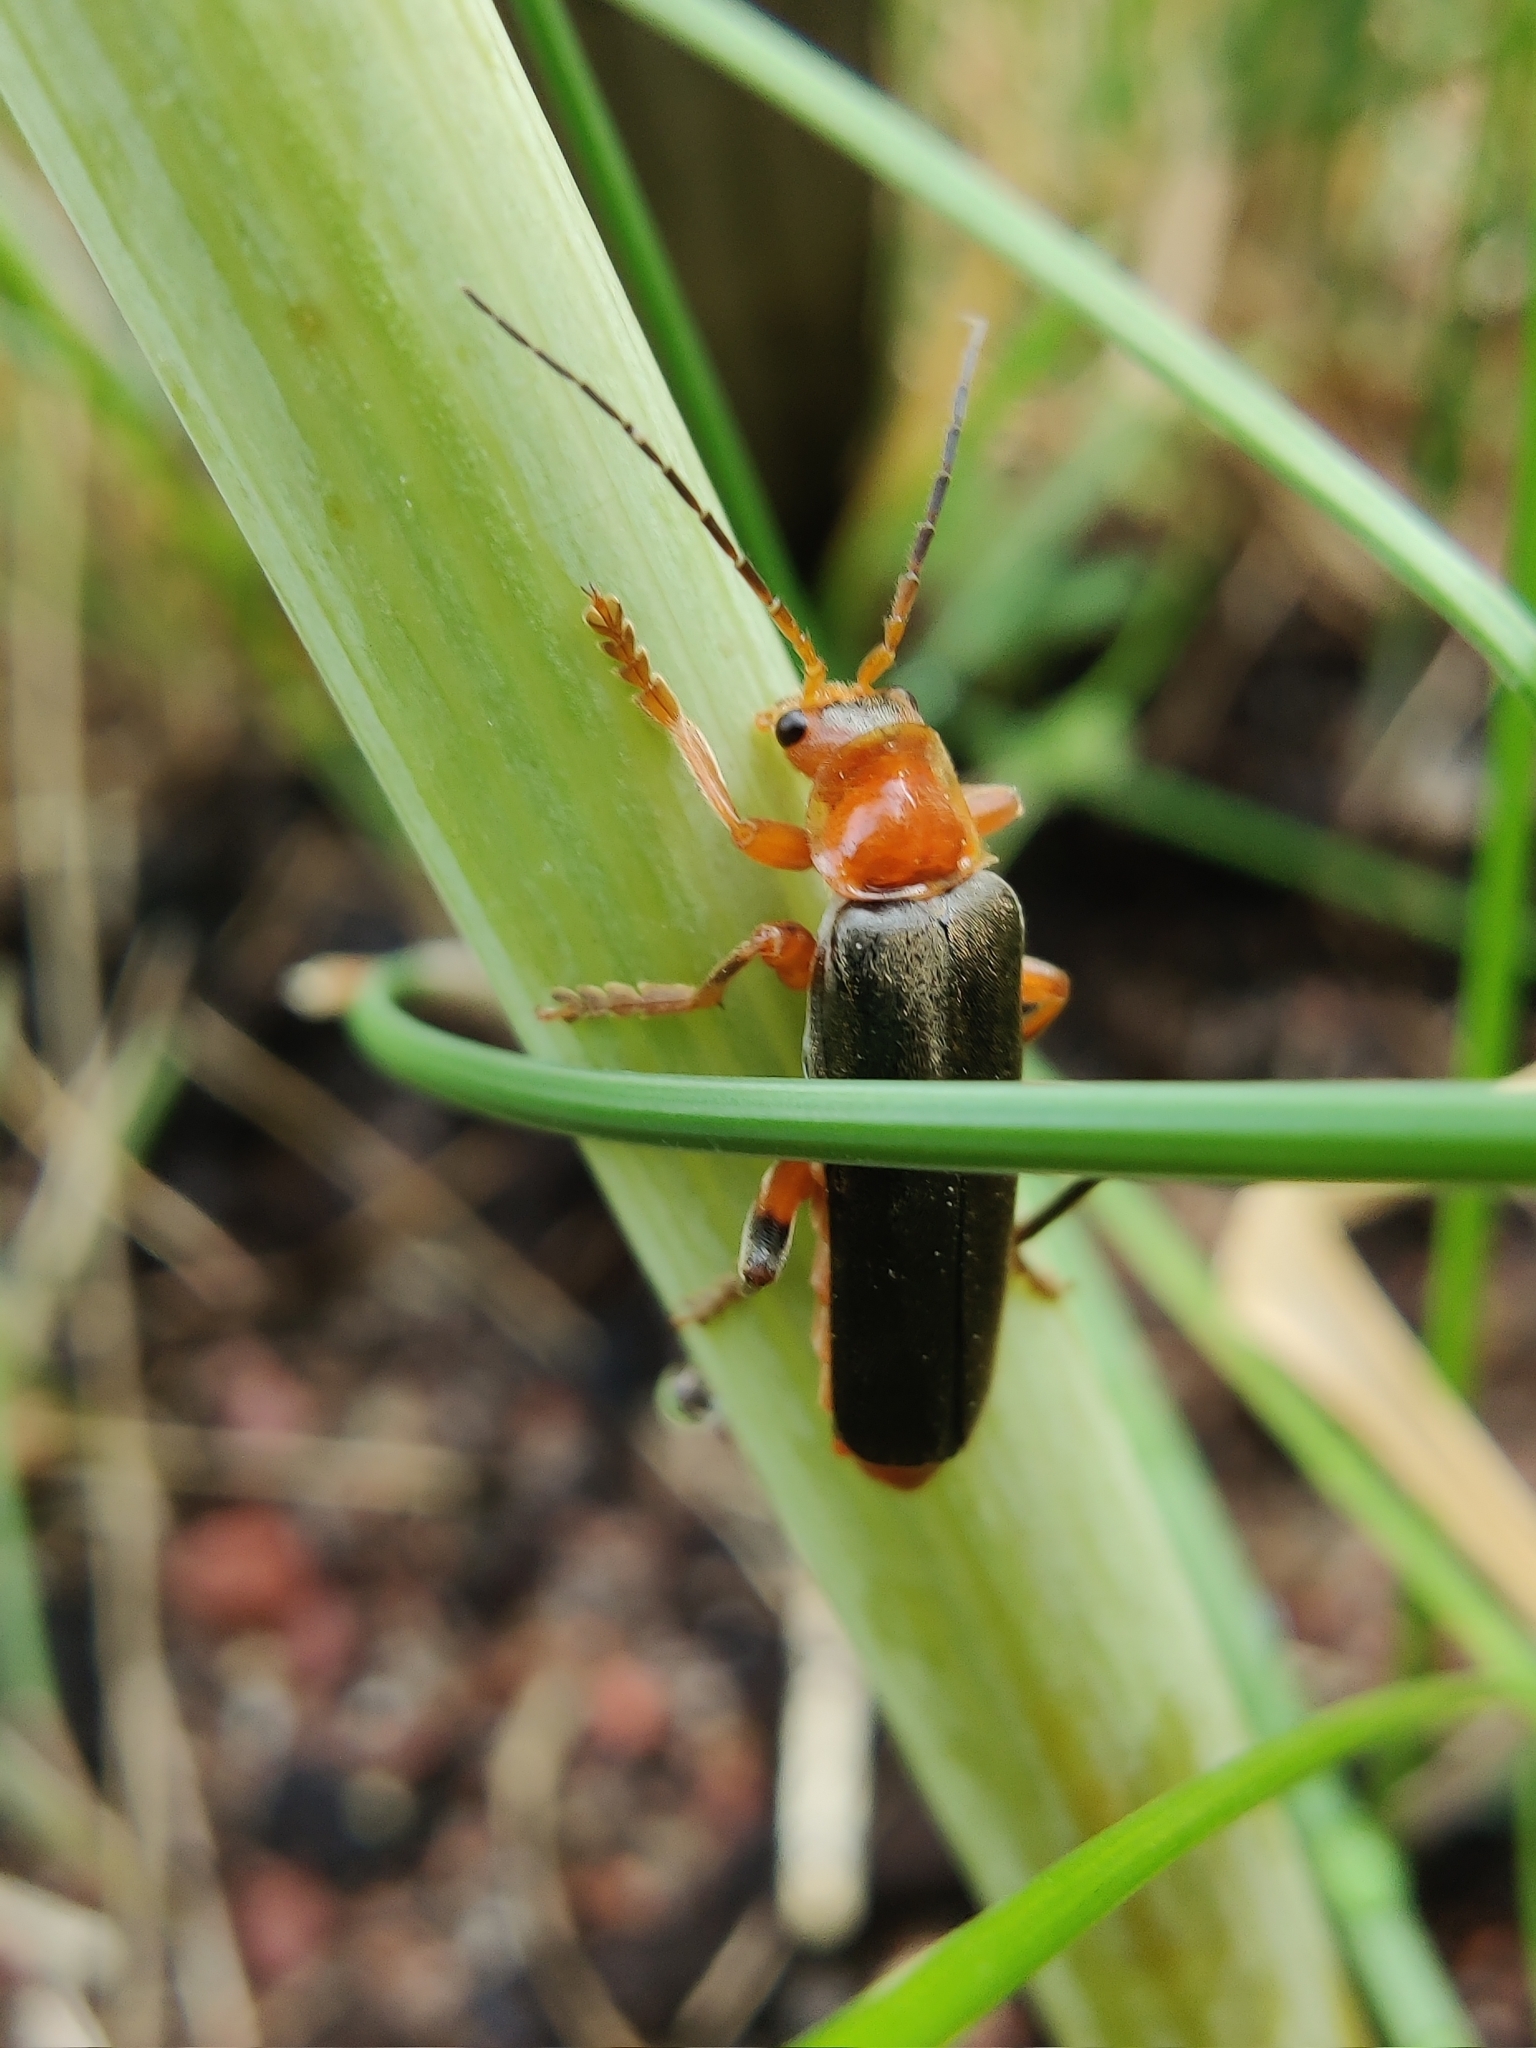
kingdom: Animalia
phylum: Arthropoda
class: Insecta
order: Coleoptera
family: Cantharidae
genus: Cantharis
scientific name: Cantharis livida
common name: Livid soldier beetle
